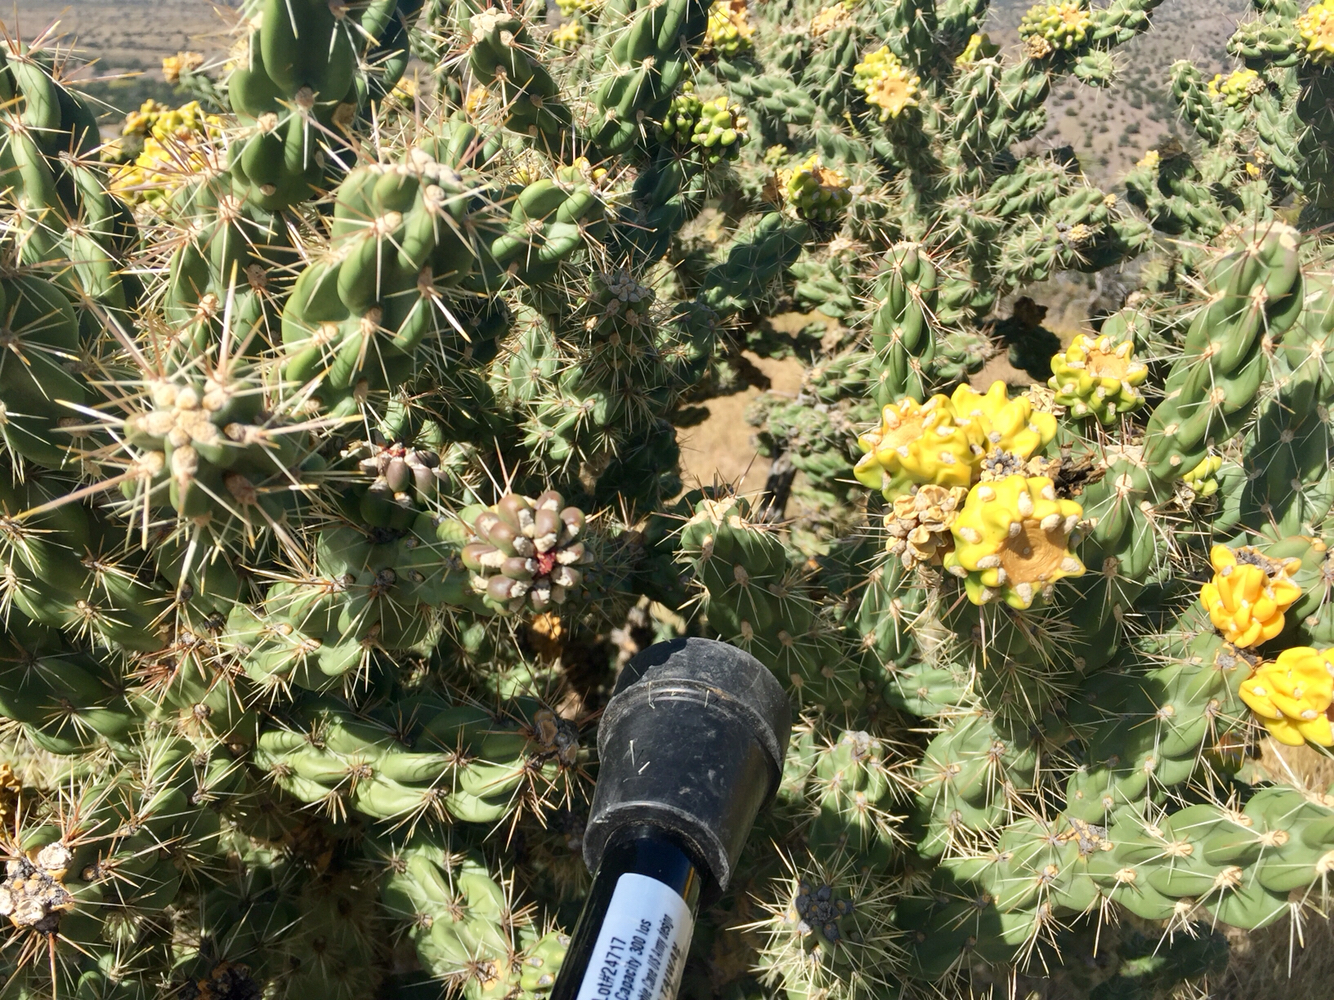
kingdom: Plantae
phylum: Tracheophyta
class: Magnoliopsida
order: Caryophyllales
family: Cactaceae
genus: Cylindropuntia
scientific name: Cylindropuntia imbricata
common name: Candelabrum cactus
